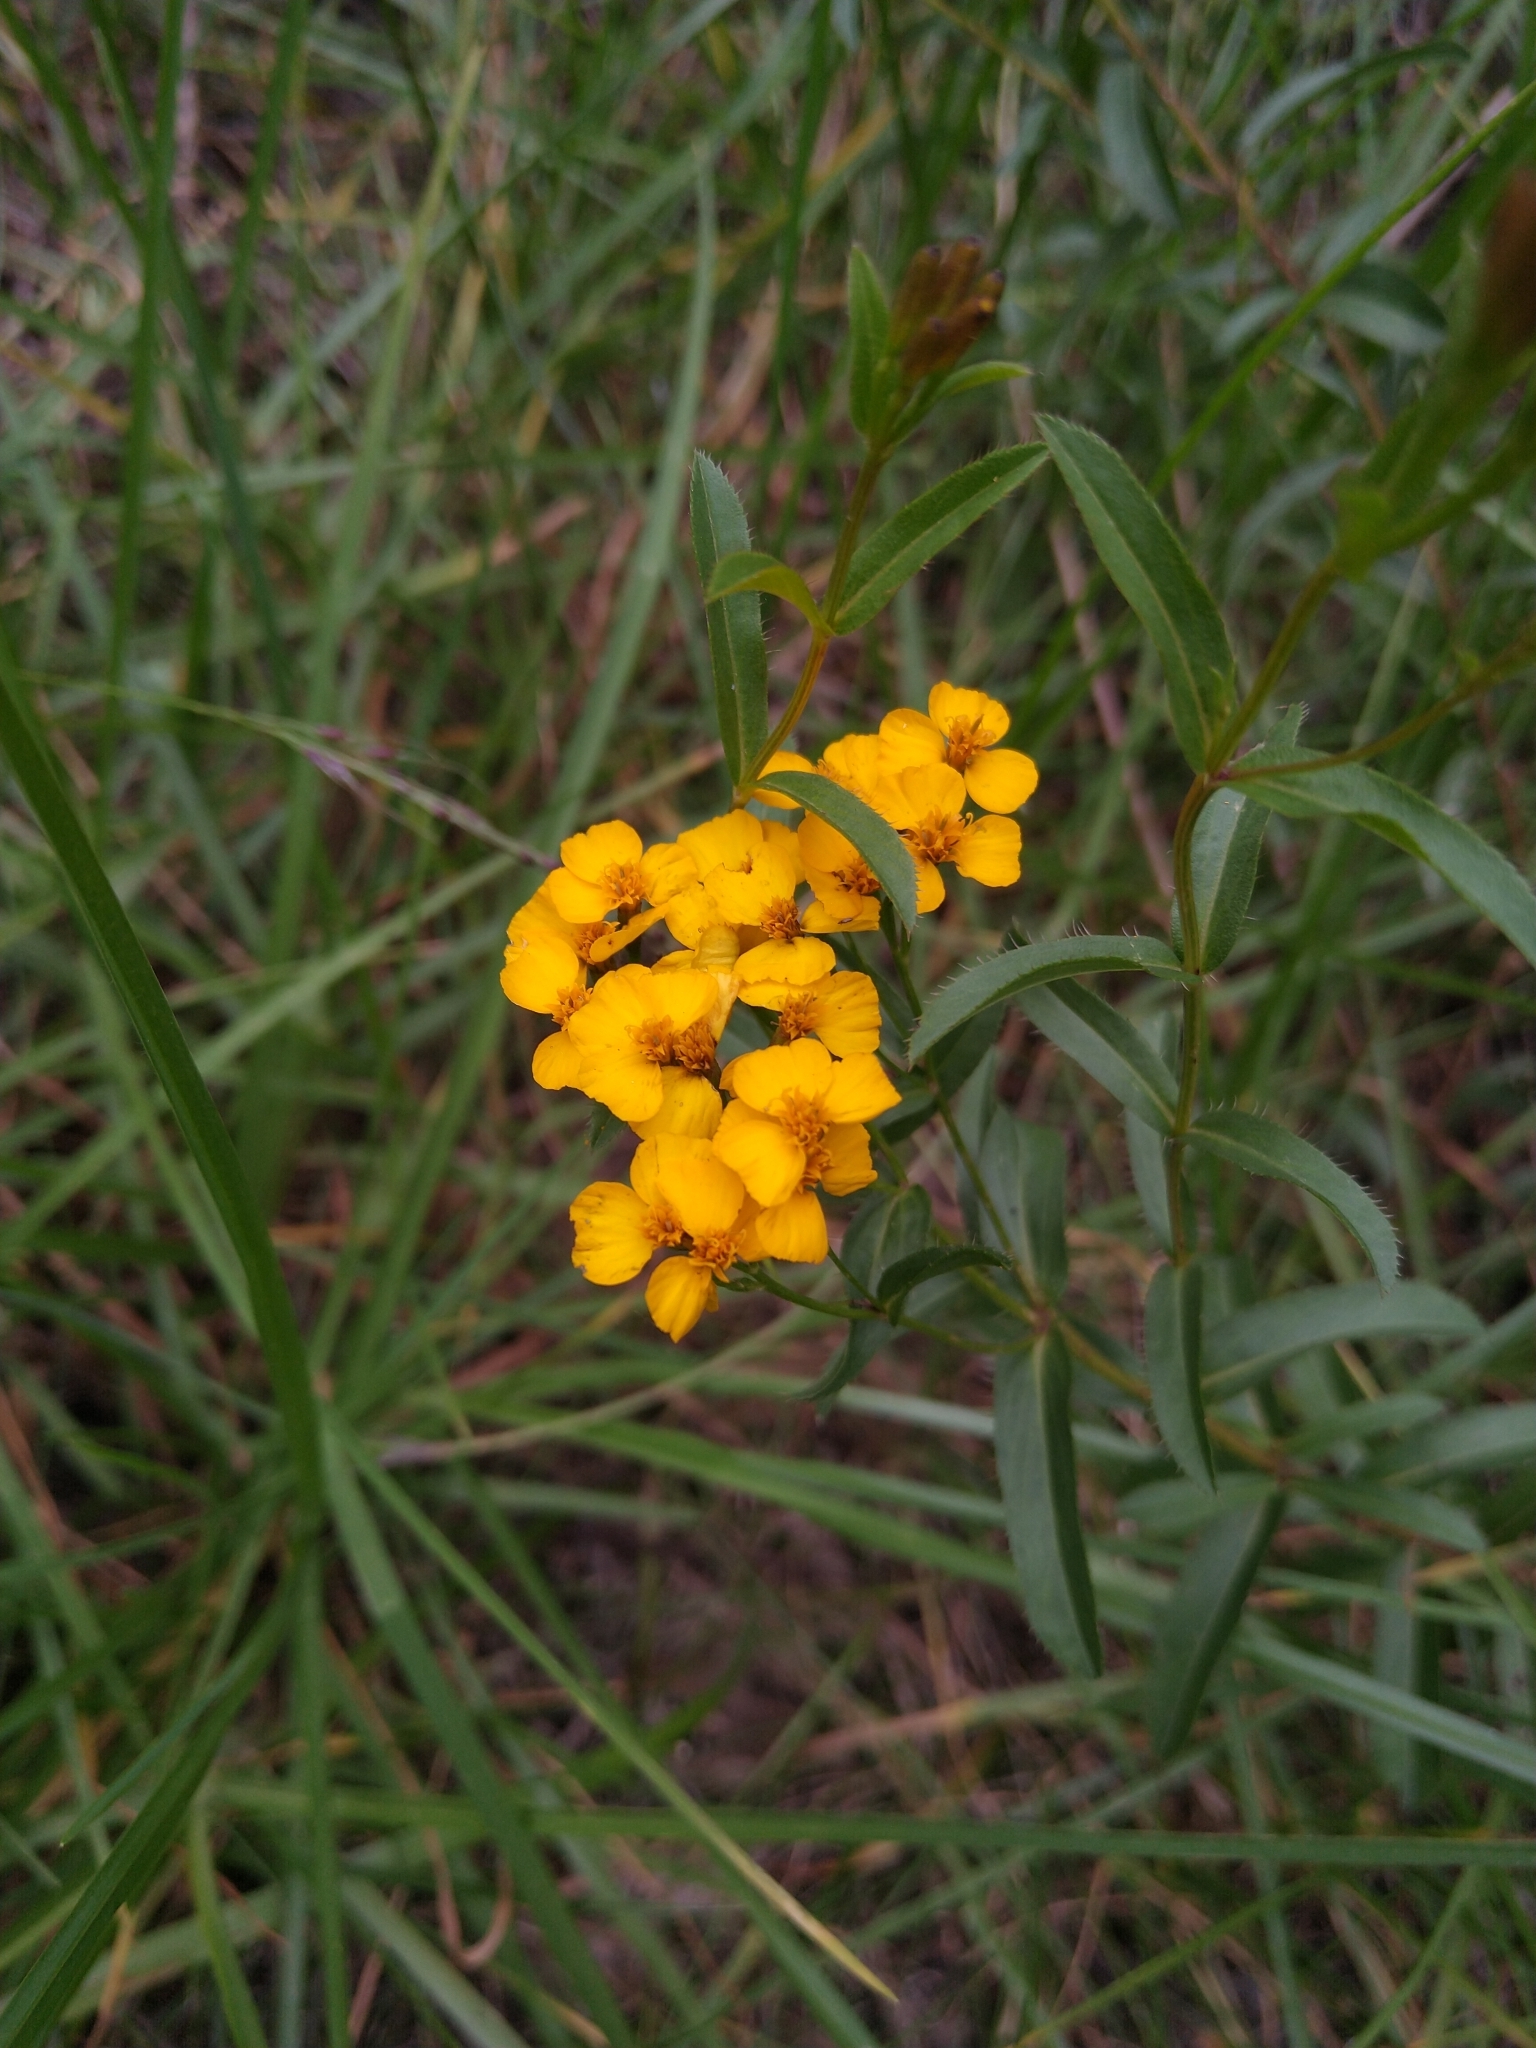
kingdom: Plantae
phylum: Tracheophyta
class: Magnoliopsida
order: Asterales
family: Asteraceae
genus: Tagetes
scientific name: Tagetes lucida
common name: Sweetscented marigold
